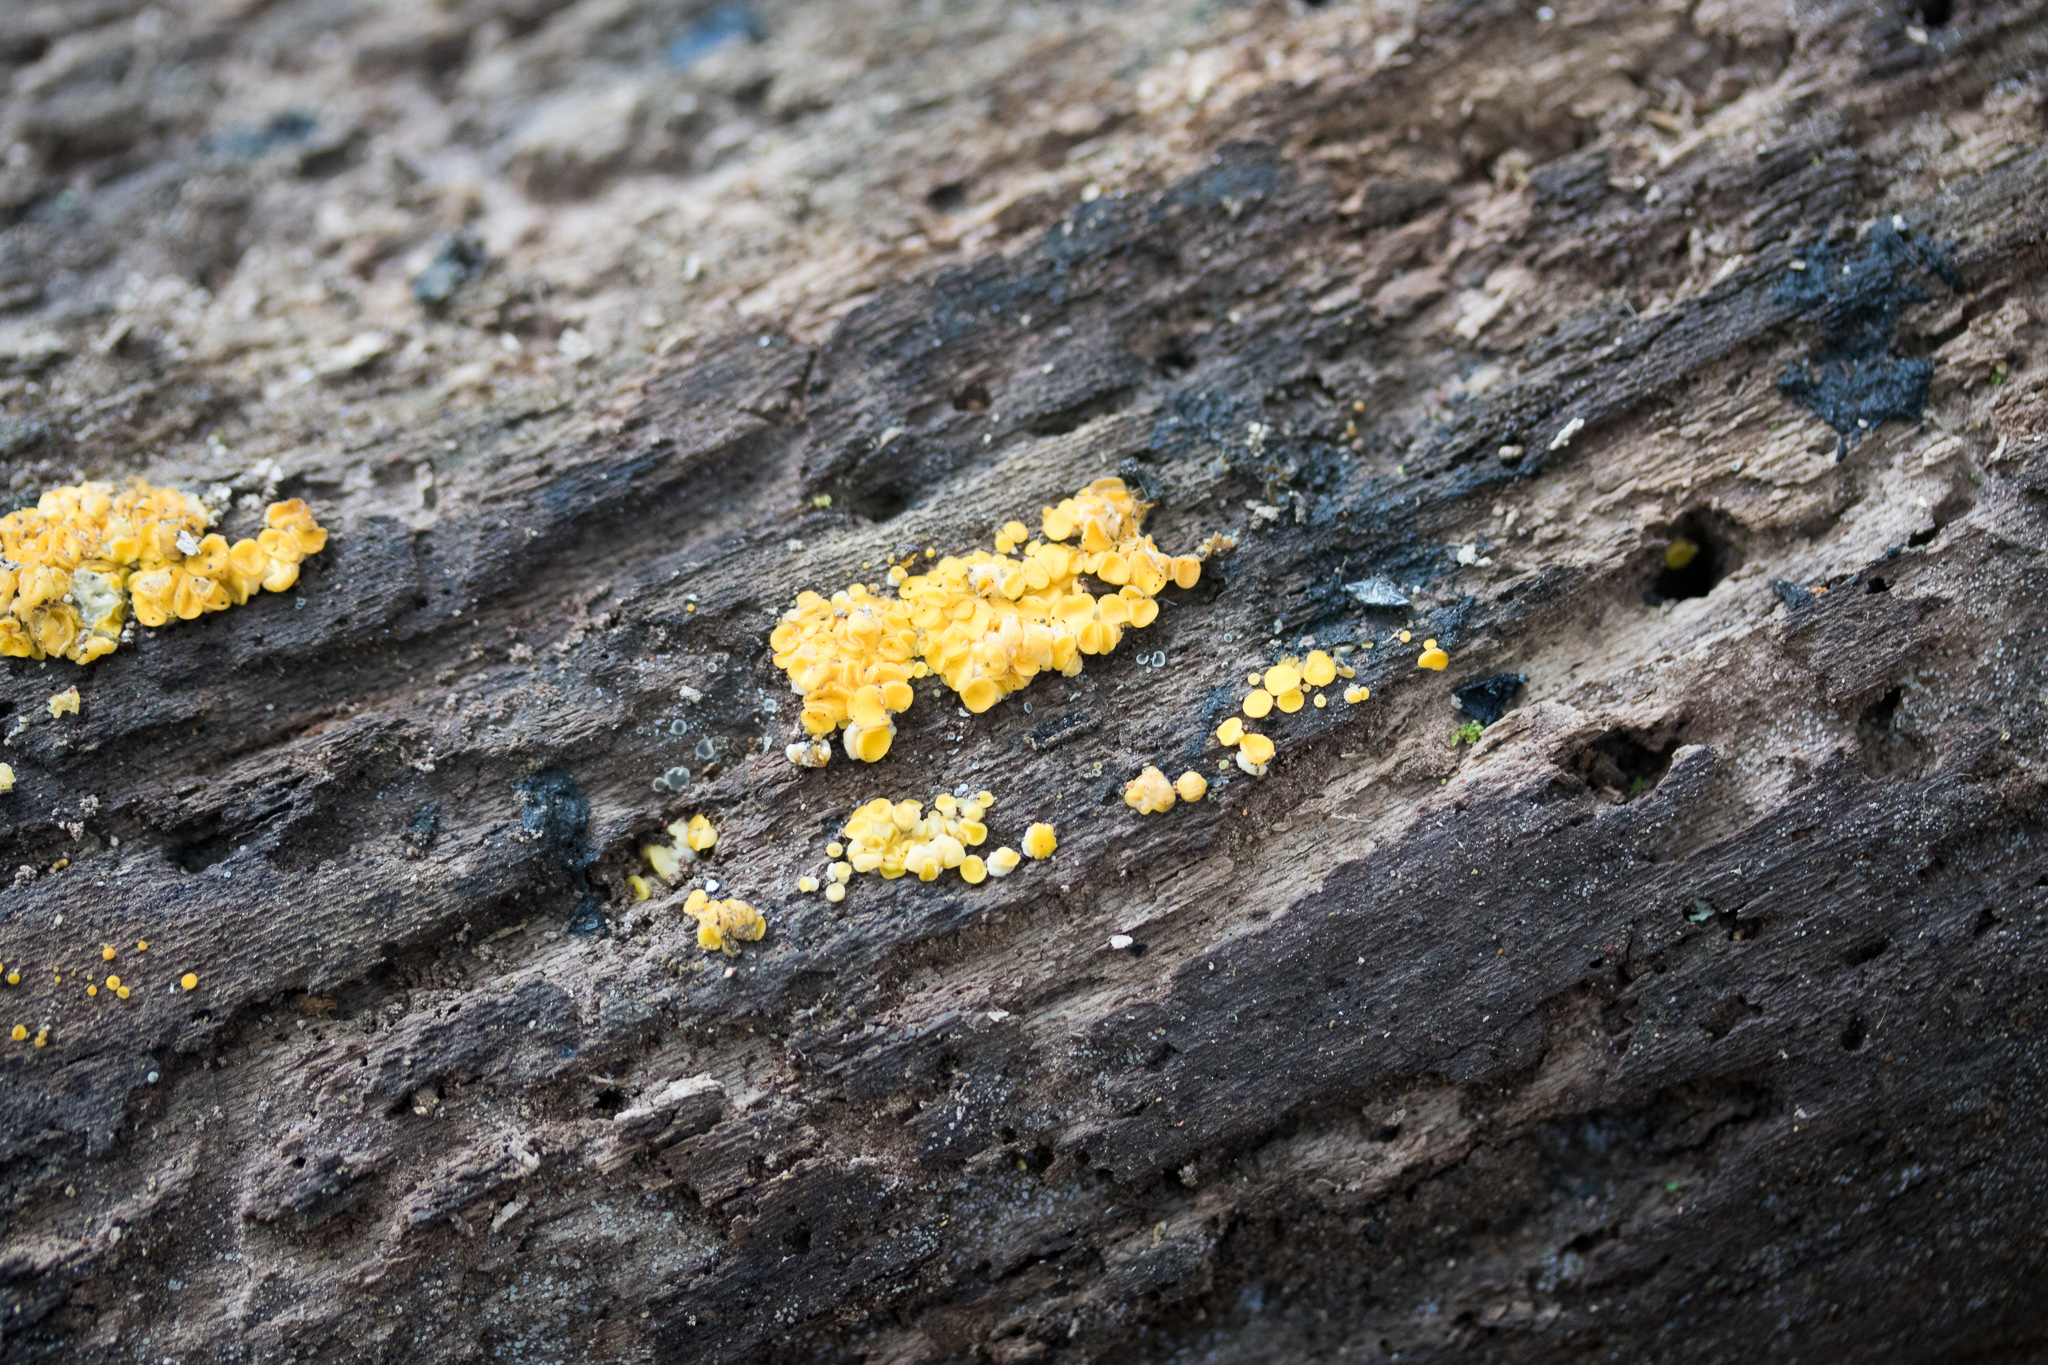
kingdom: Fungi
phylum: Ascomycota
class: Leotiomycetes
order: Helotiales
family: Pezizellaceae
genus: Calycina
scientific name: Calycina citrina
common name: Yellow fairy cups
